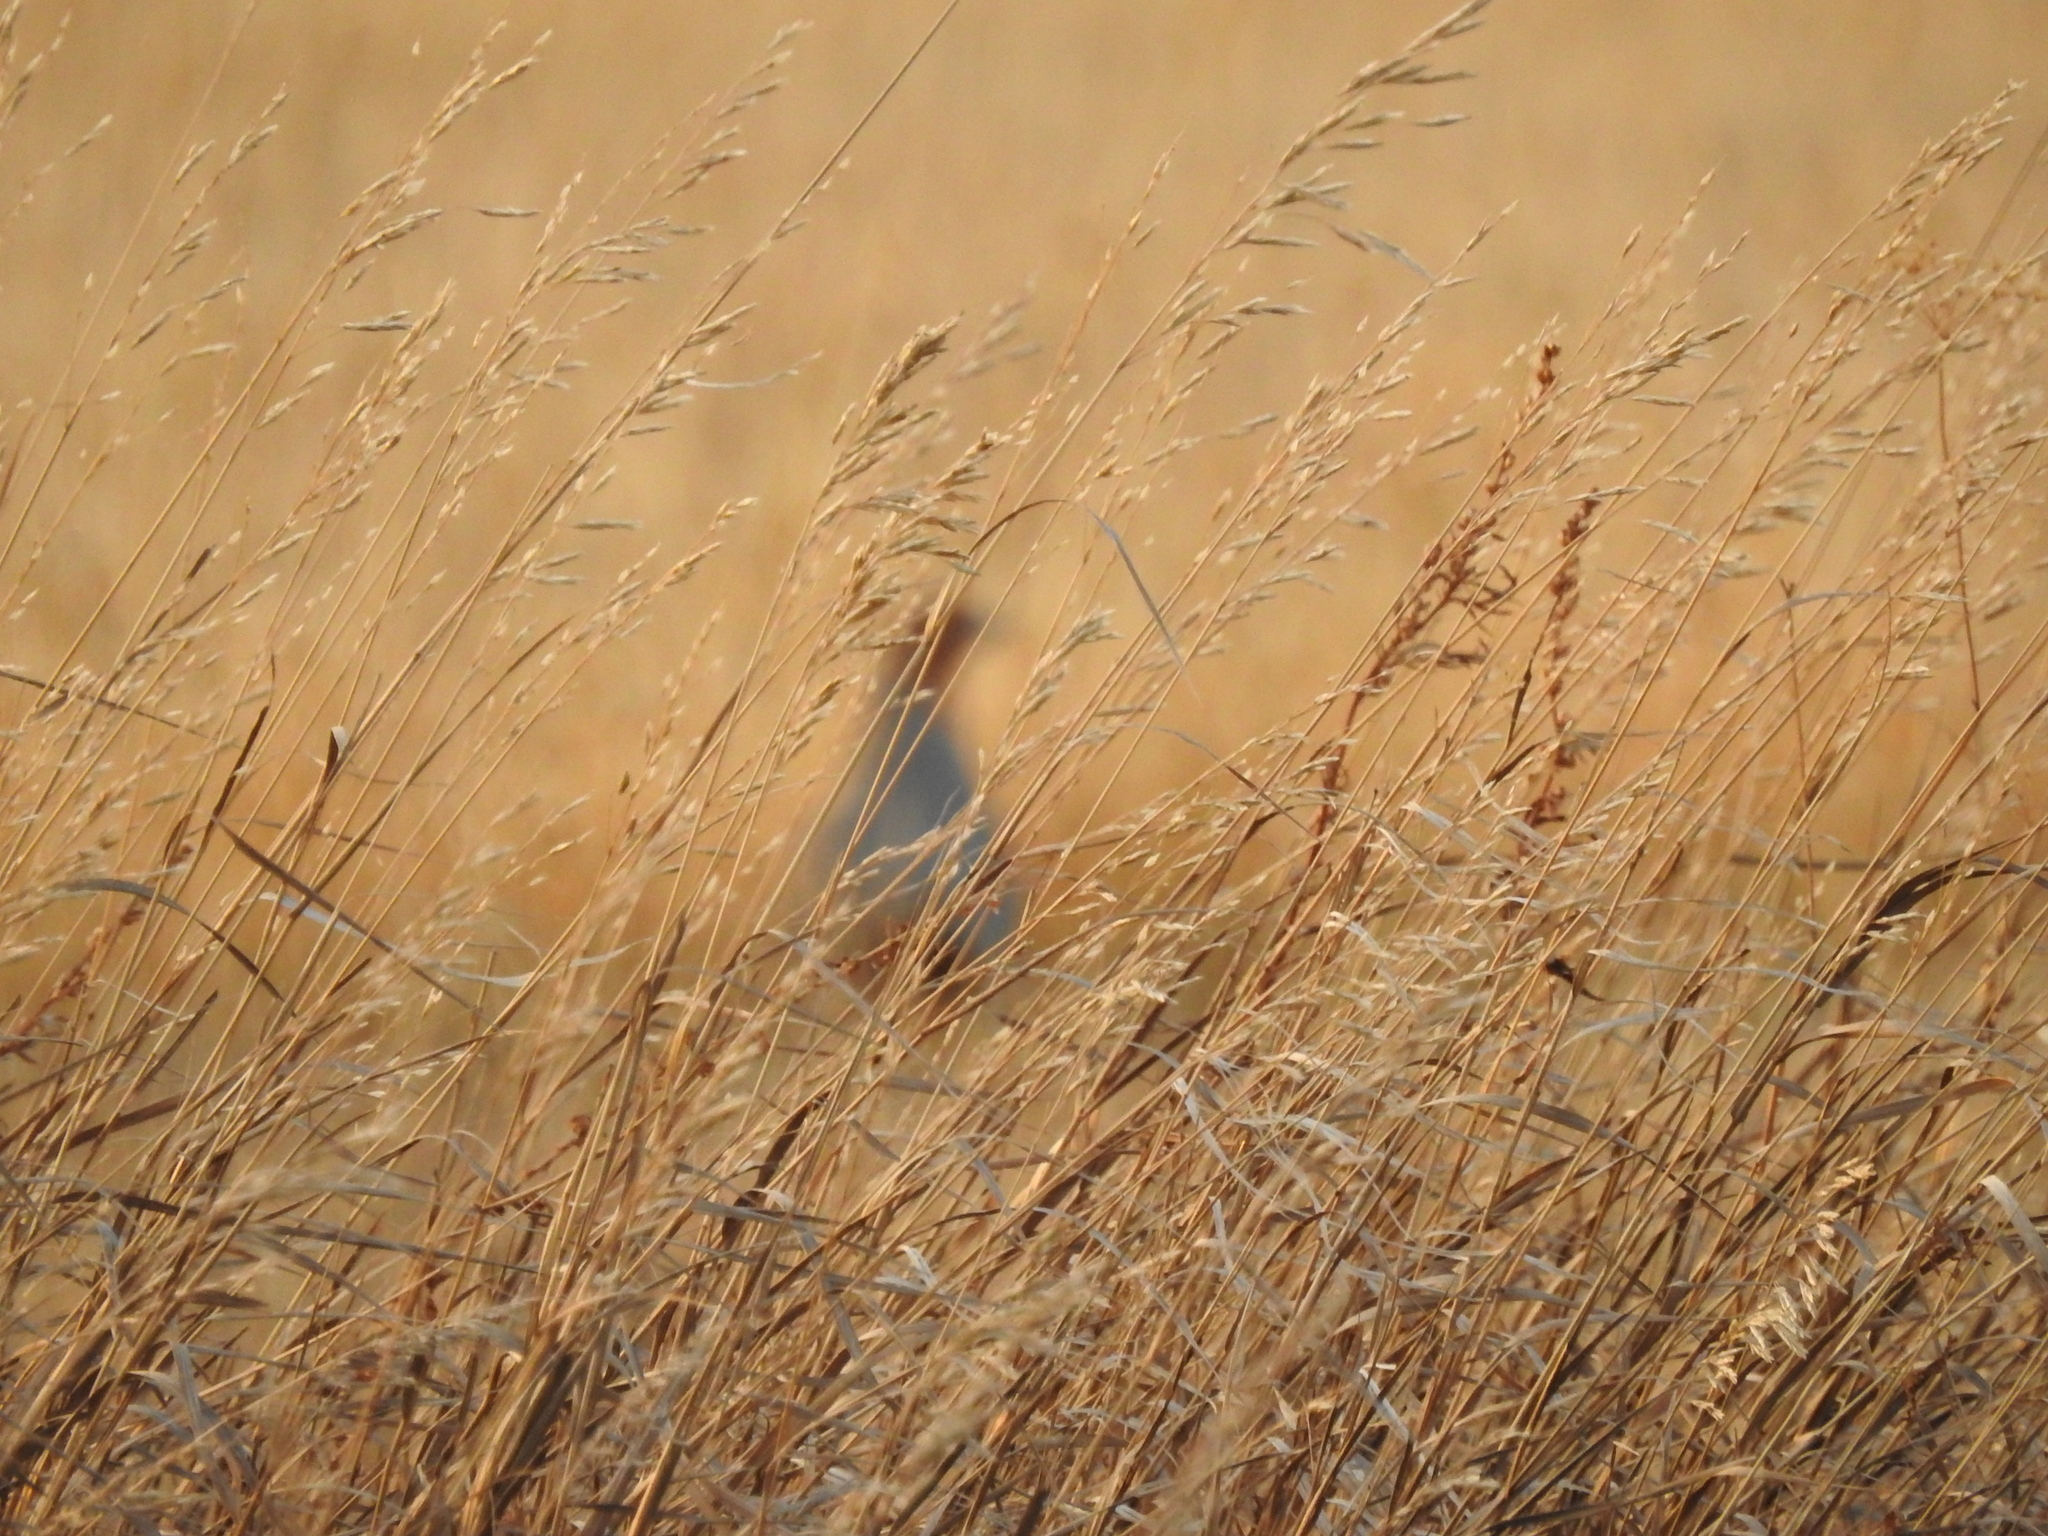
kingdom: Animalia
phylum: Chordata
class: Aves
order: Galliformes
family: Phasianidae
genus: Perdix
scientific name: Perdix perdix
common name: Grey partridge
